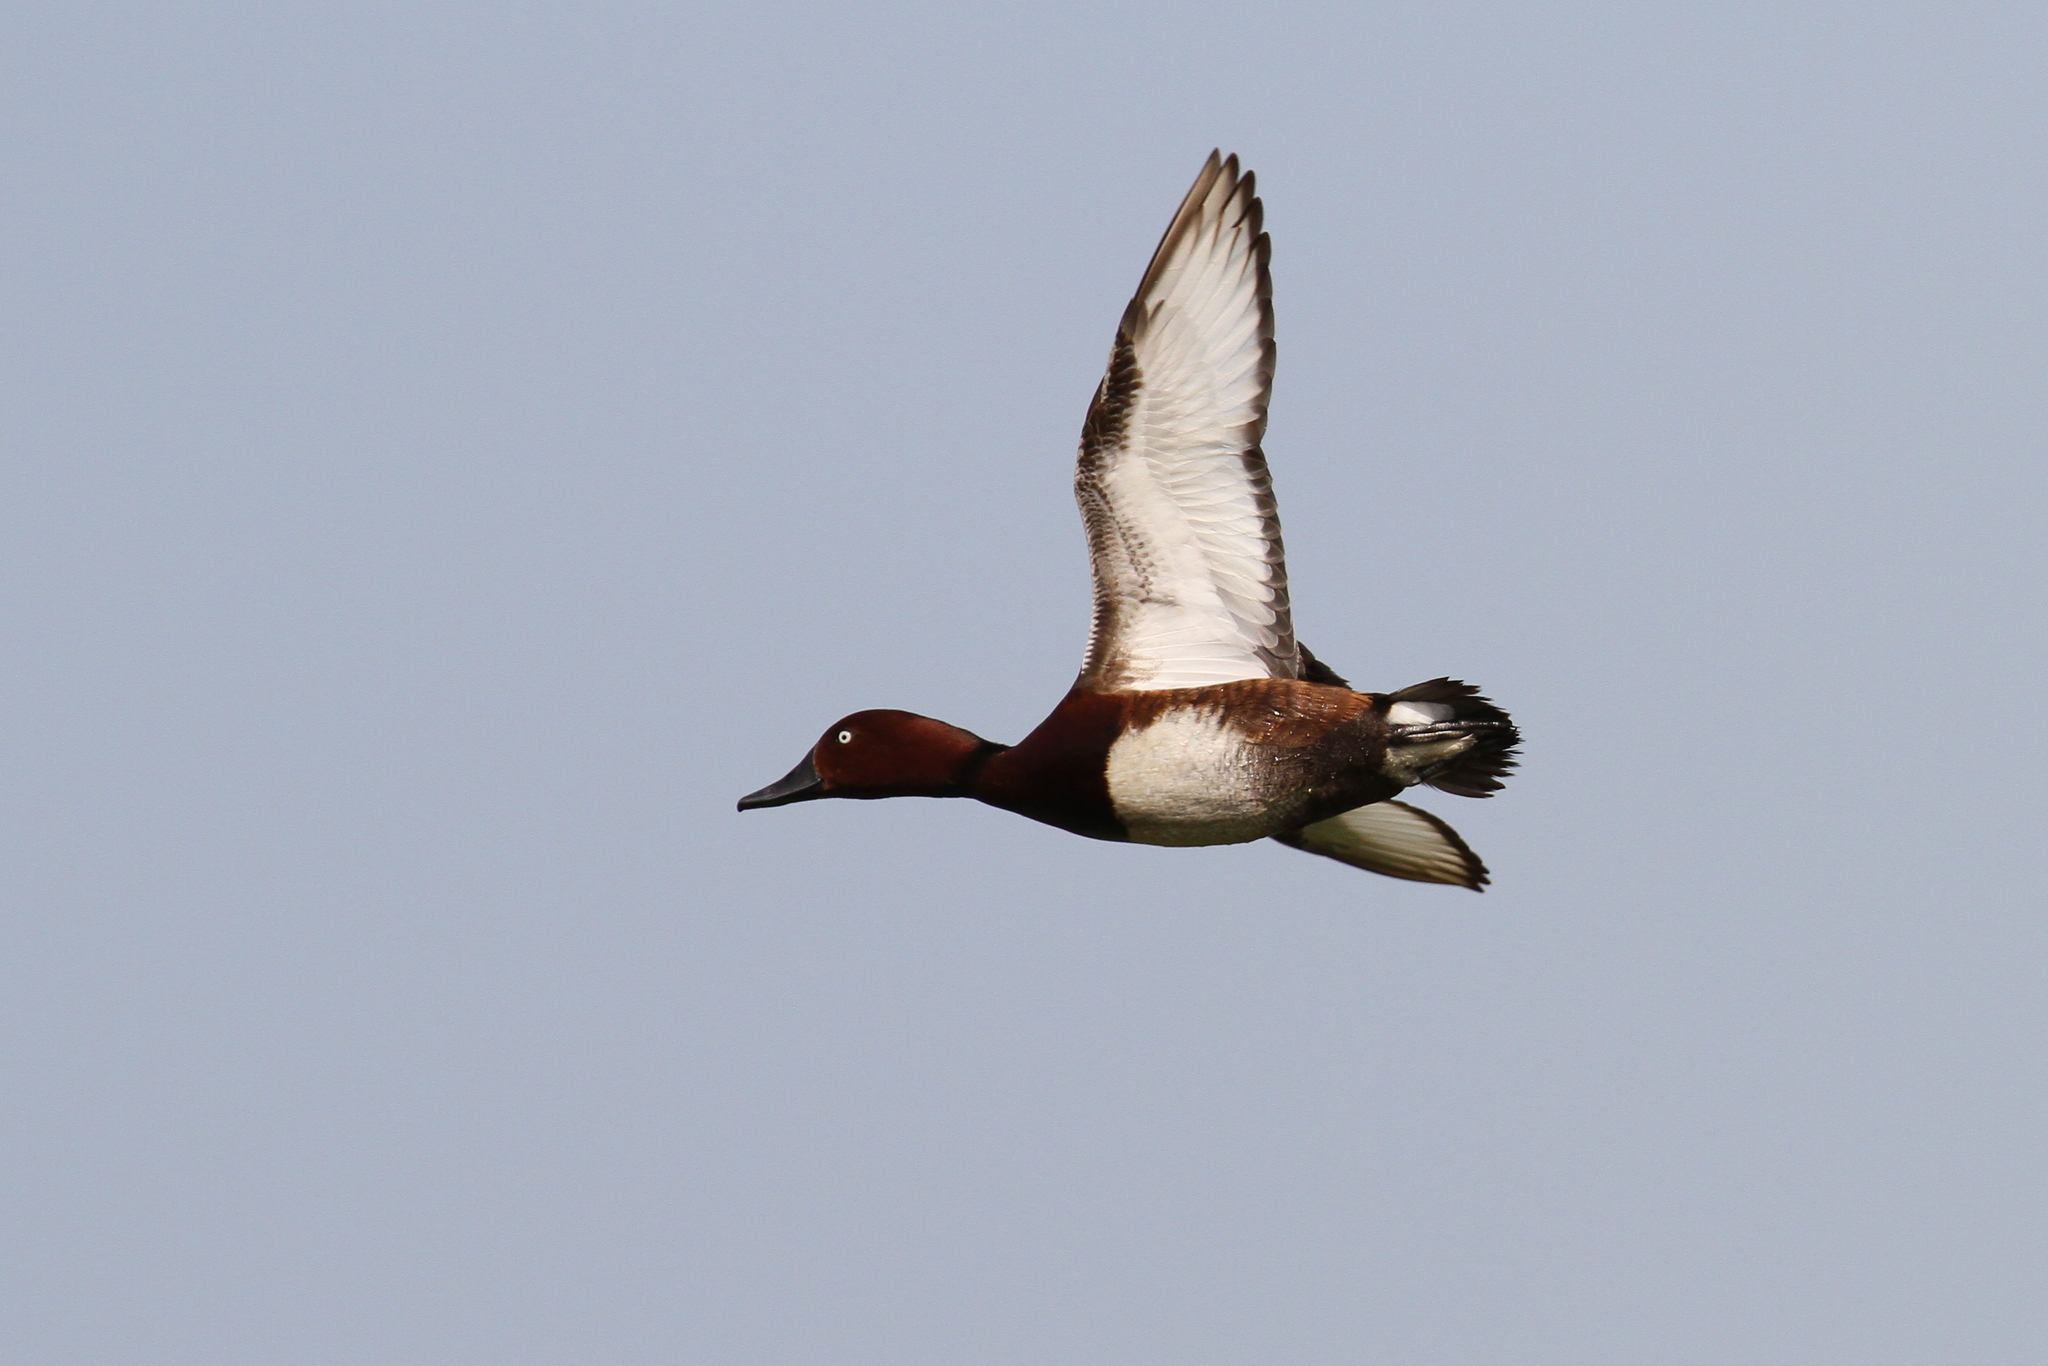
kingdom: Animalia
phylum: Chordata
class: Aves
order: Anseriformes
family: Anatidae
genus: Aythya
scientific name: Aythya nyroca
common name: Ferruginous duck
